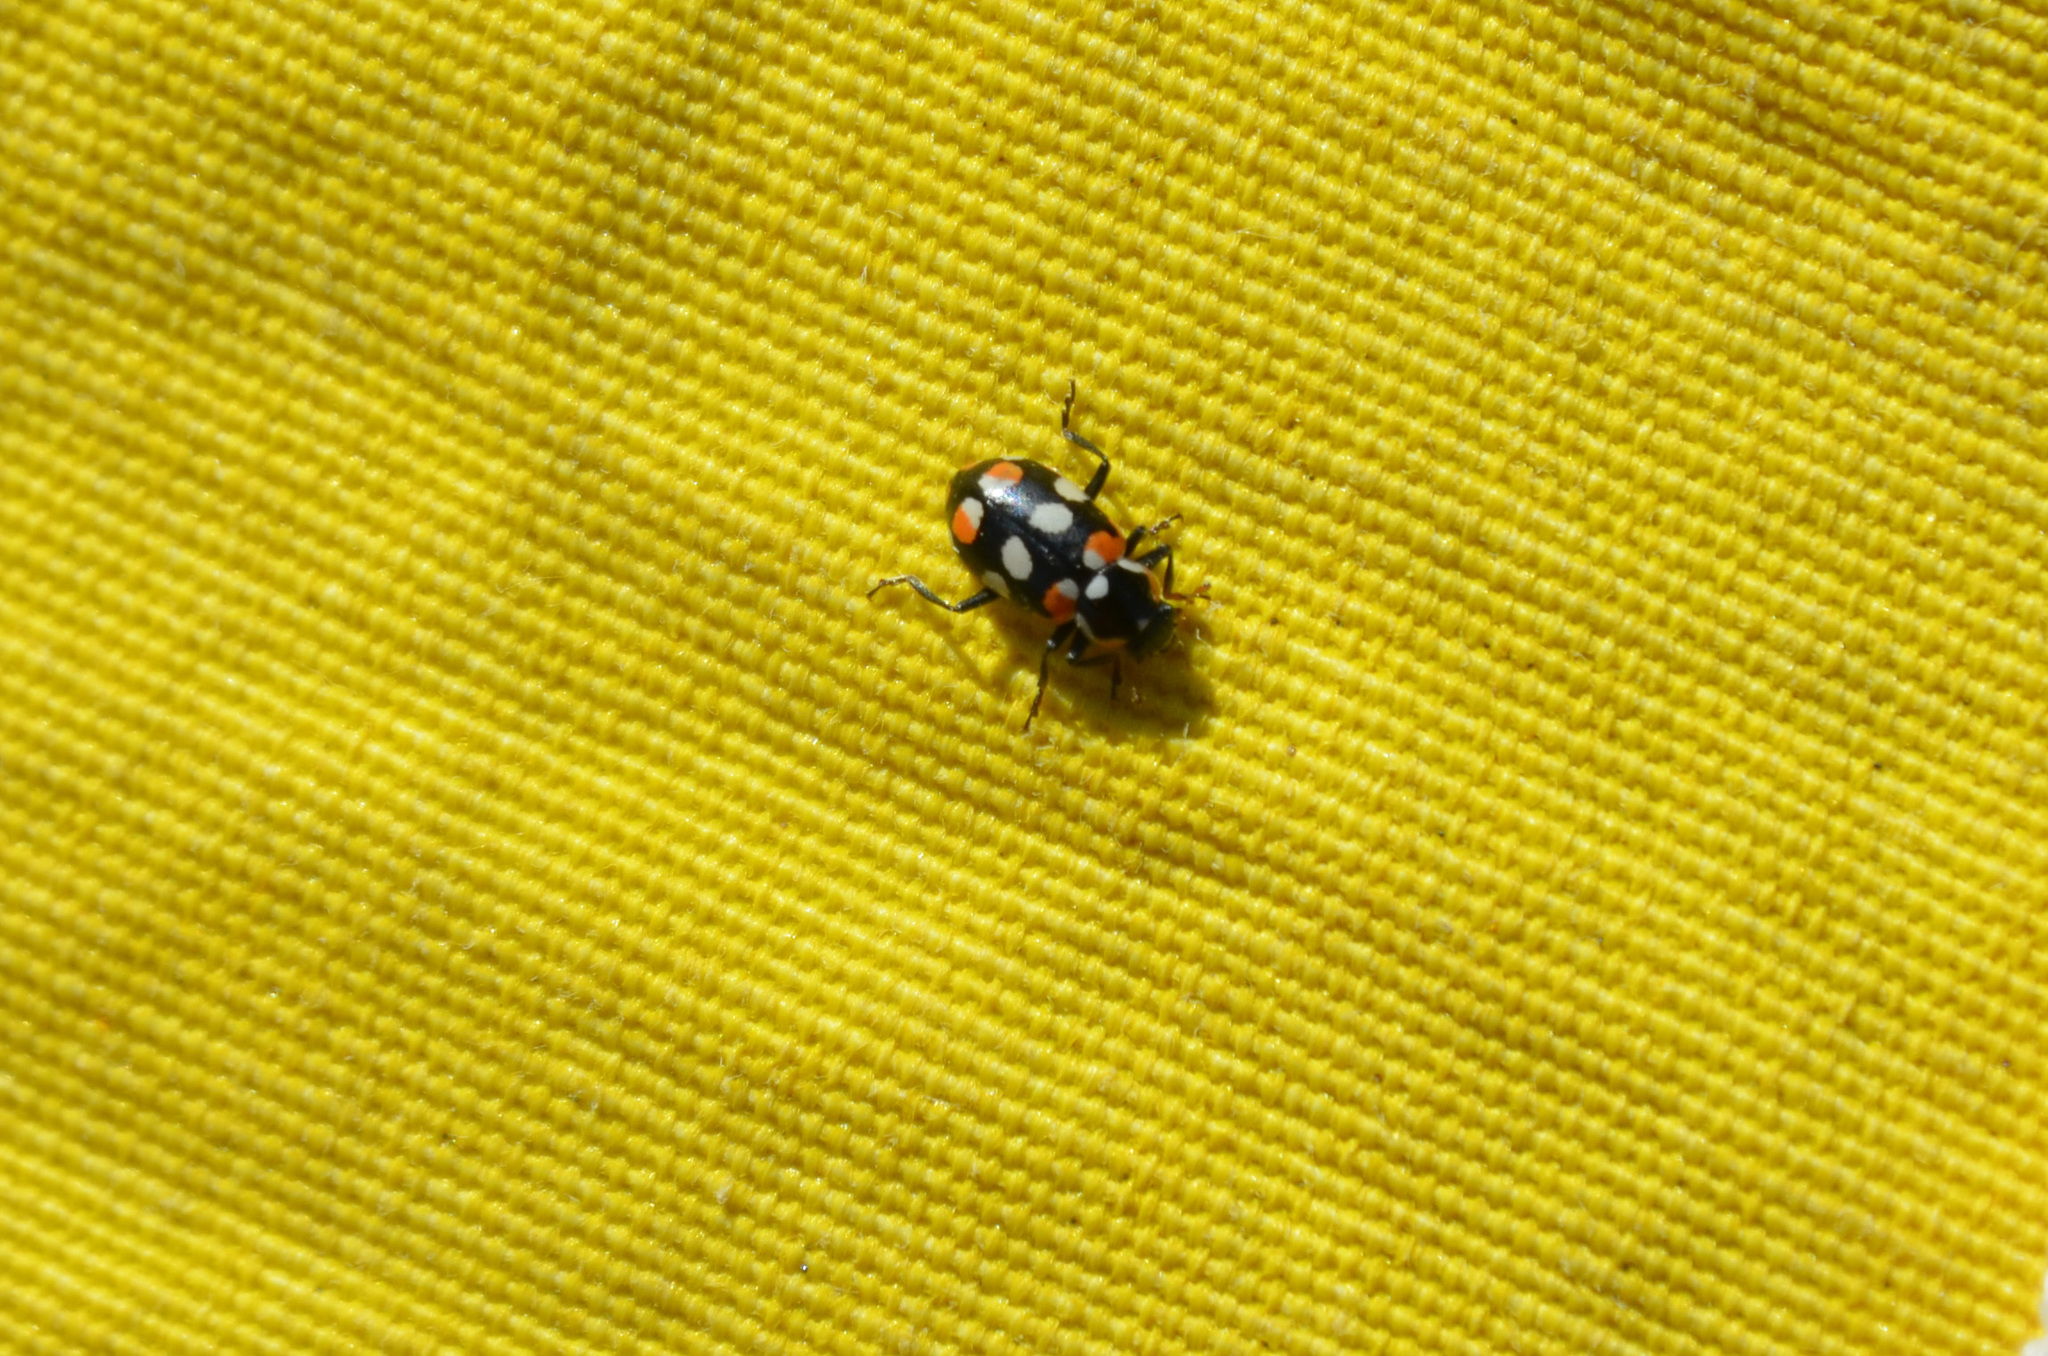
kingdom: Animalia
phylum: Arthropoda
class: Insecta
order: Coleoptera
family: Coccinellidae
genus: Eriopis
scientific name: Eriopis connexa
